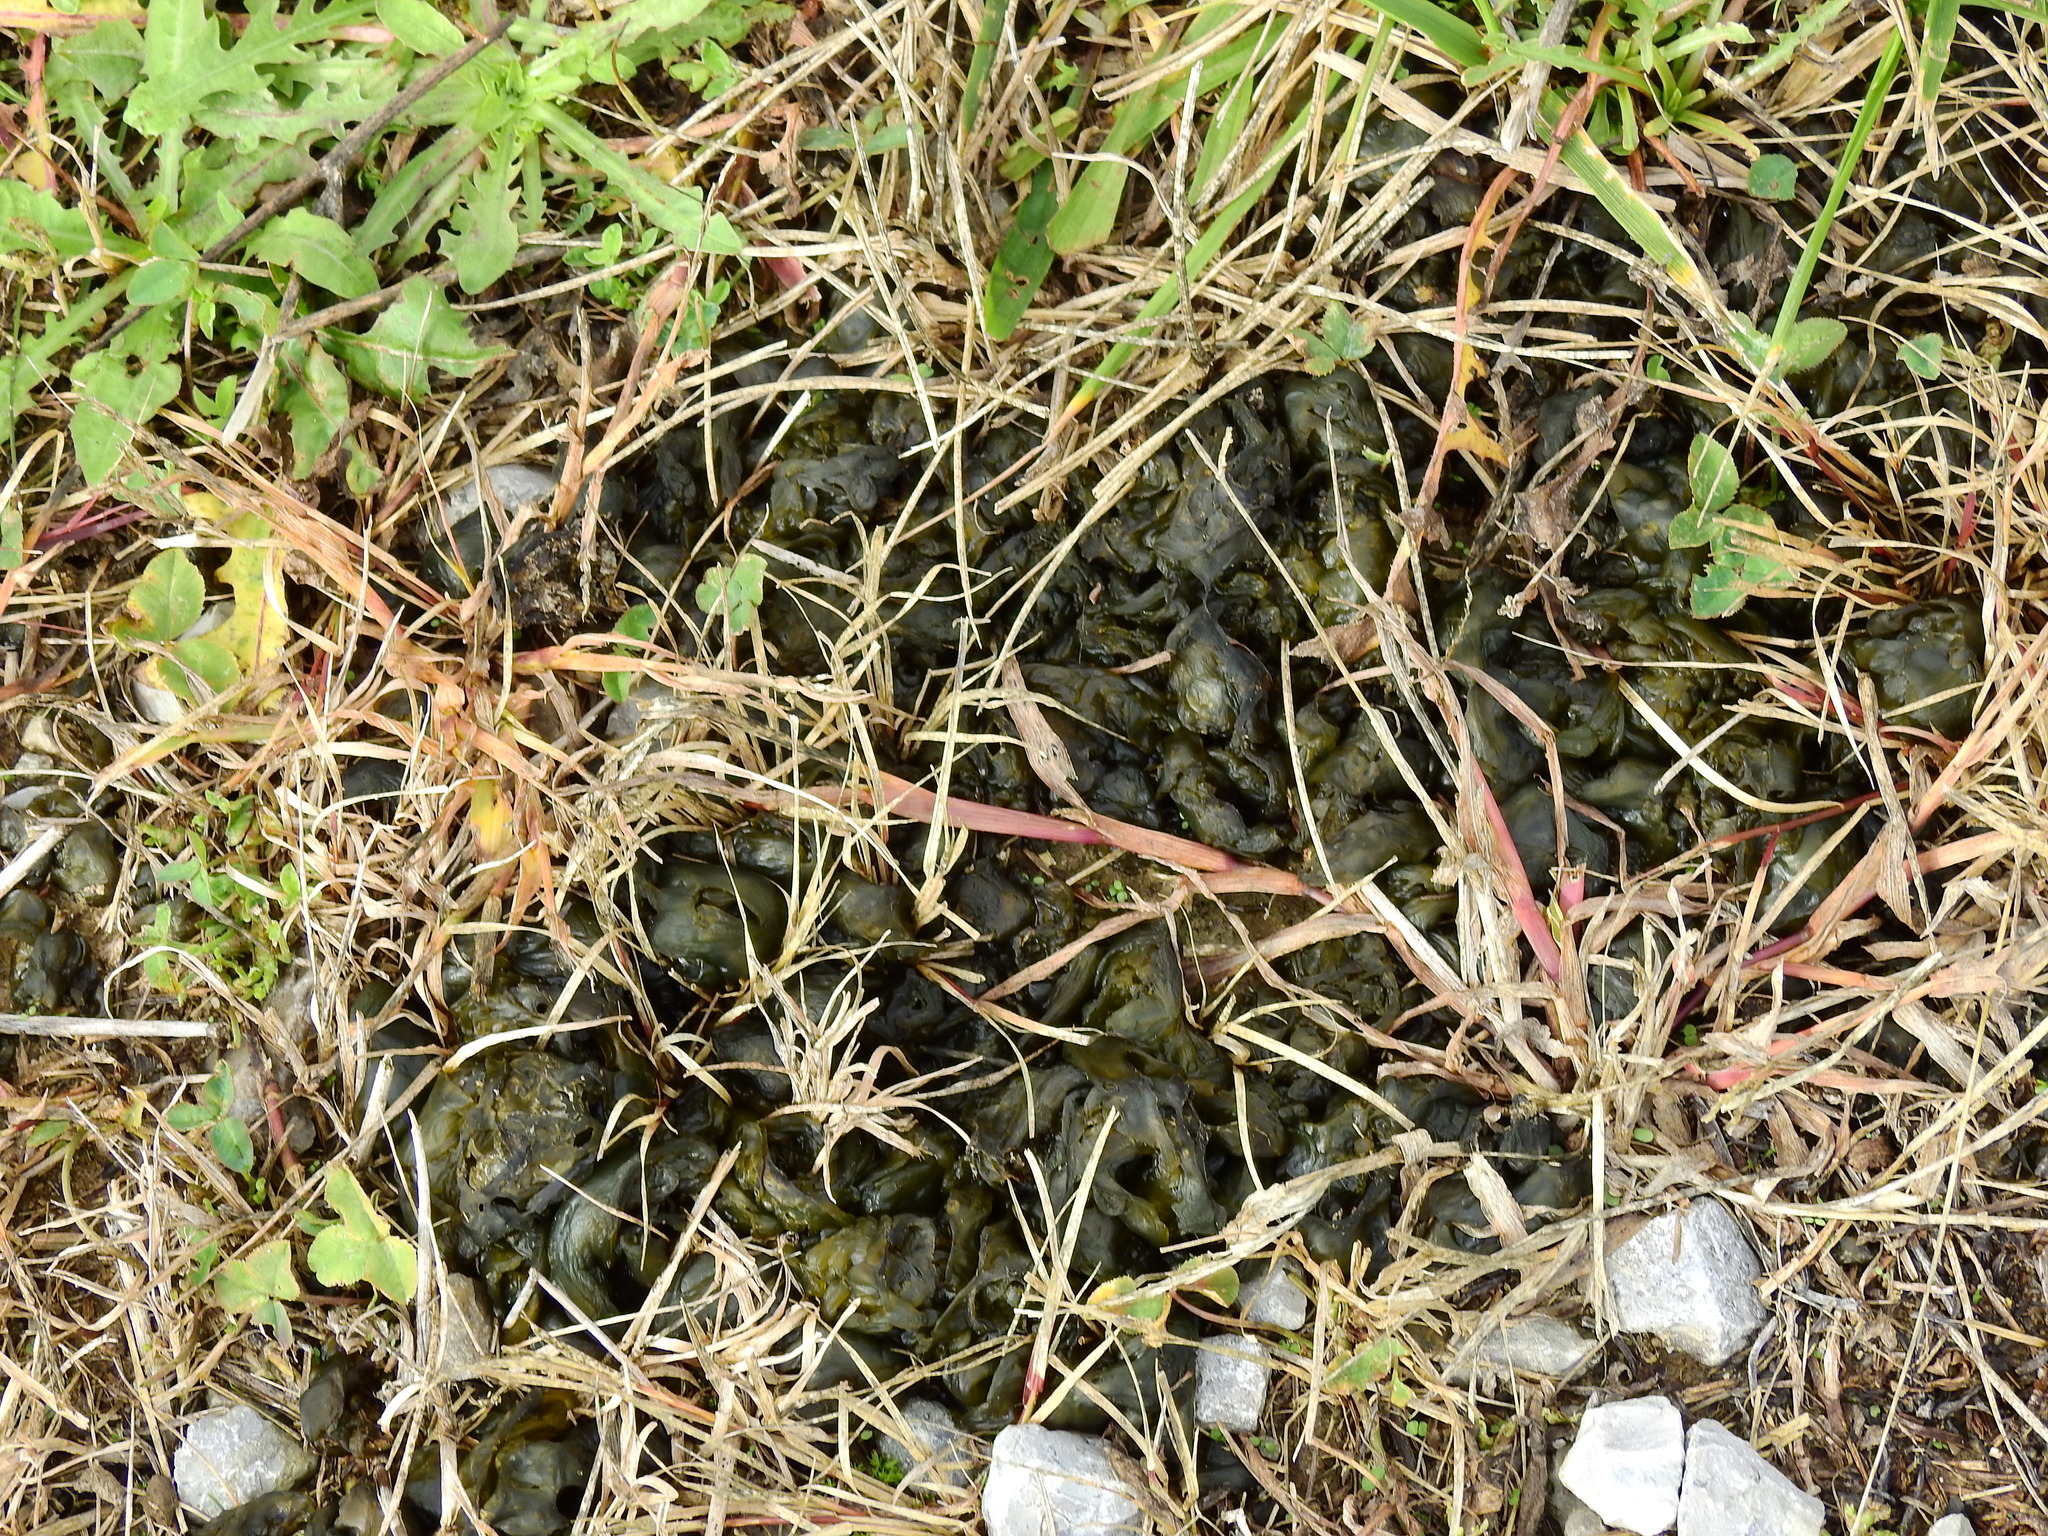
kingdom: Bacteria
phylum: Cyanobacteria
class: Cyanobacteriia
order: Cyanobacteriales
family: Nostocaceae
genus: Nostoc
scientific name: Nostoc commune
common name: Star jelly
